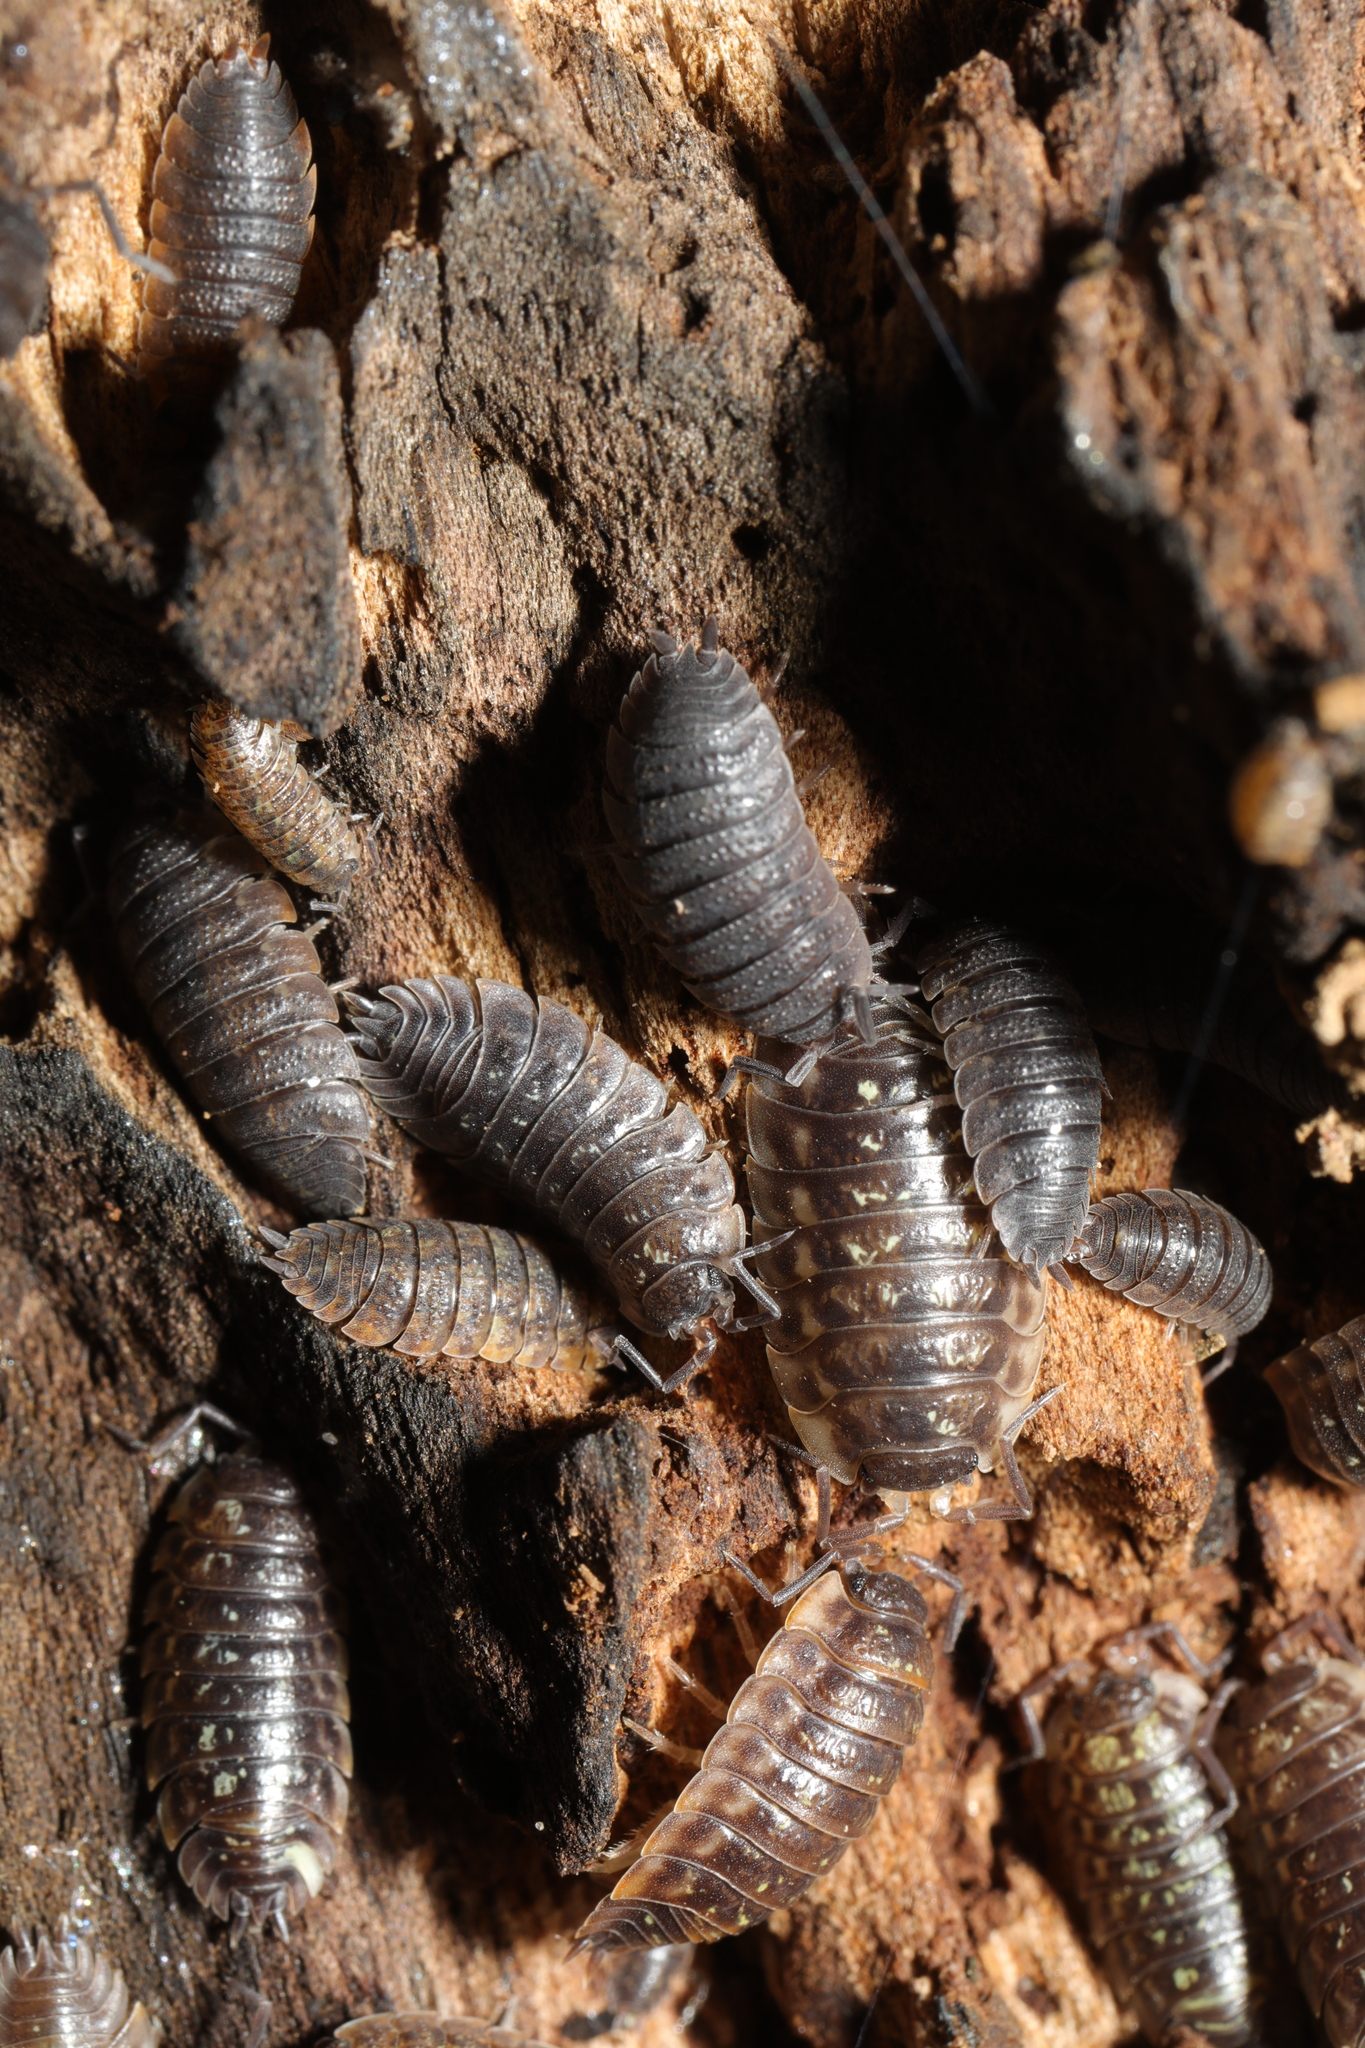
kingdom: Animalia
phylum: Arthropoda
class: Malacostraca
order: Isopoda
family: Oniscidae
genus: Oniscus
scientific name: Oniscus asellus
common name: Common shiny woodlouse
